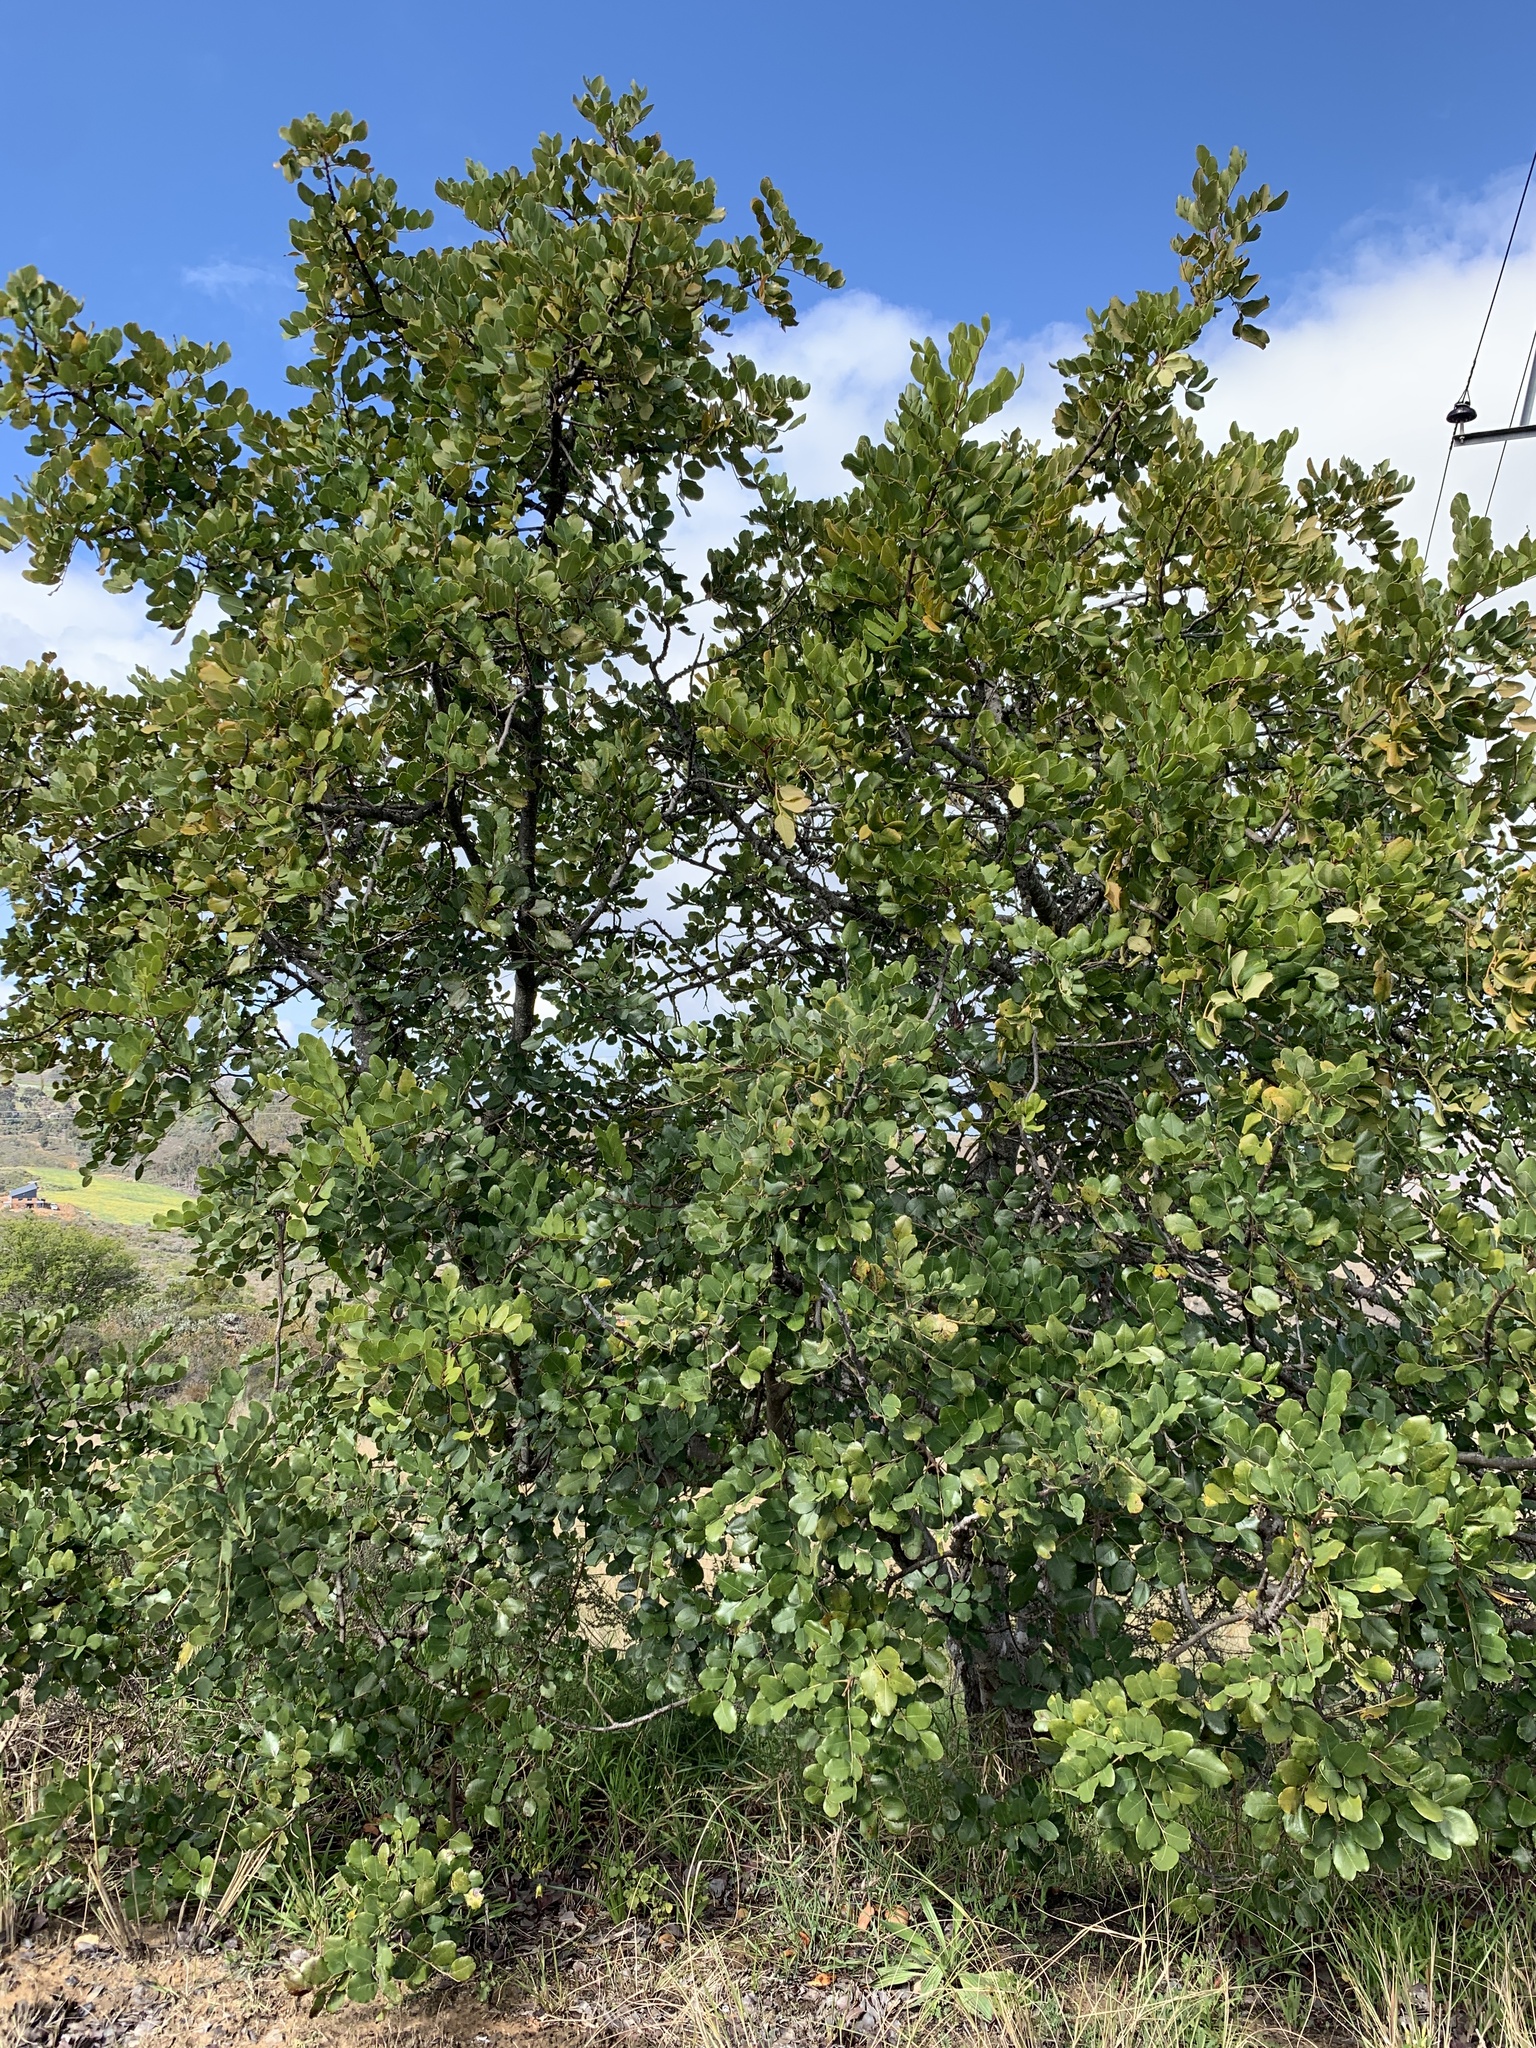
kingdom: Plantae
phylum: Tracheophyta
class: Magnoliopsida
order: Fabales
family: Fabaceae
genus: Ceratonia
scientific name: Ceratonia siliqua
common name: Carob
